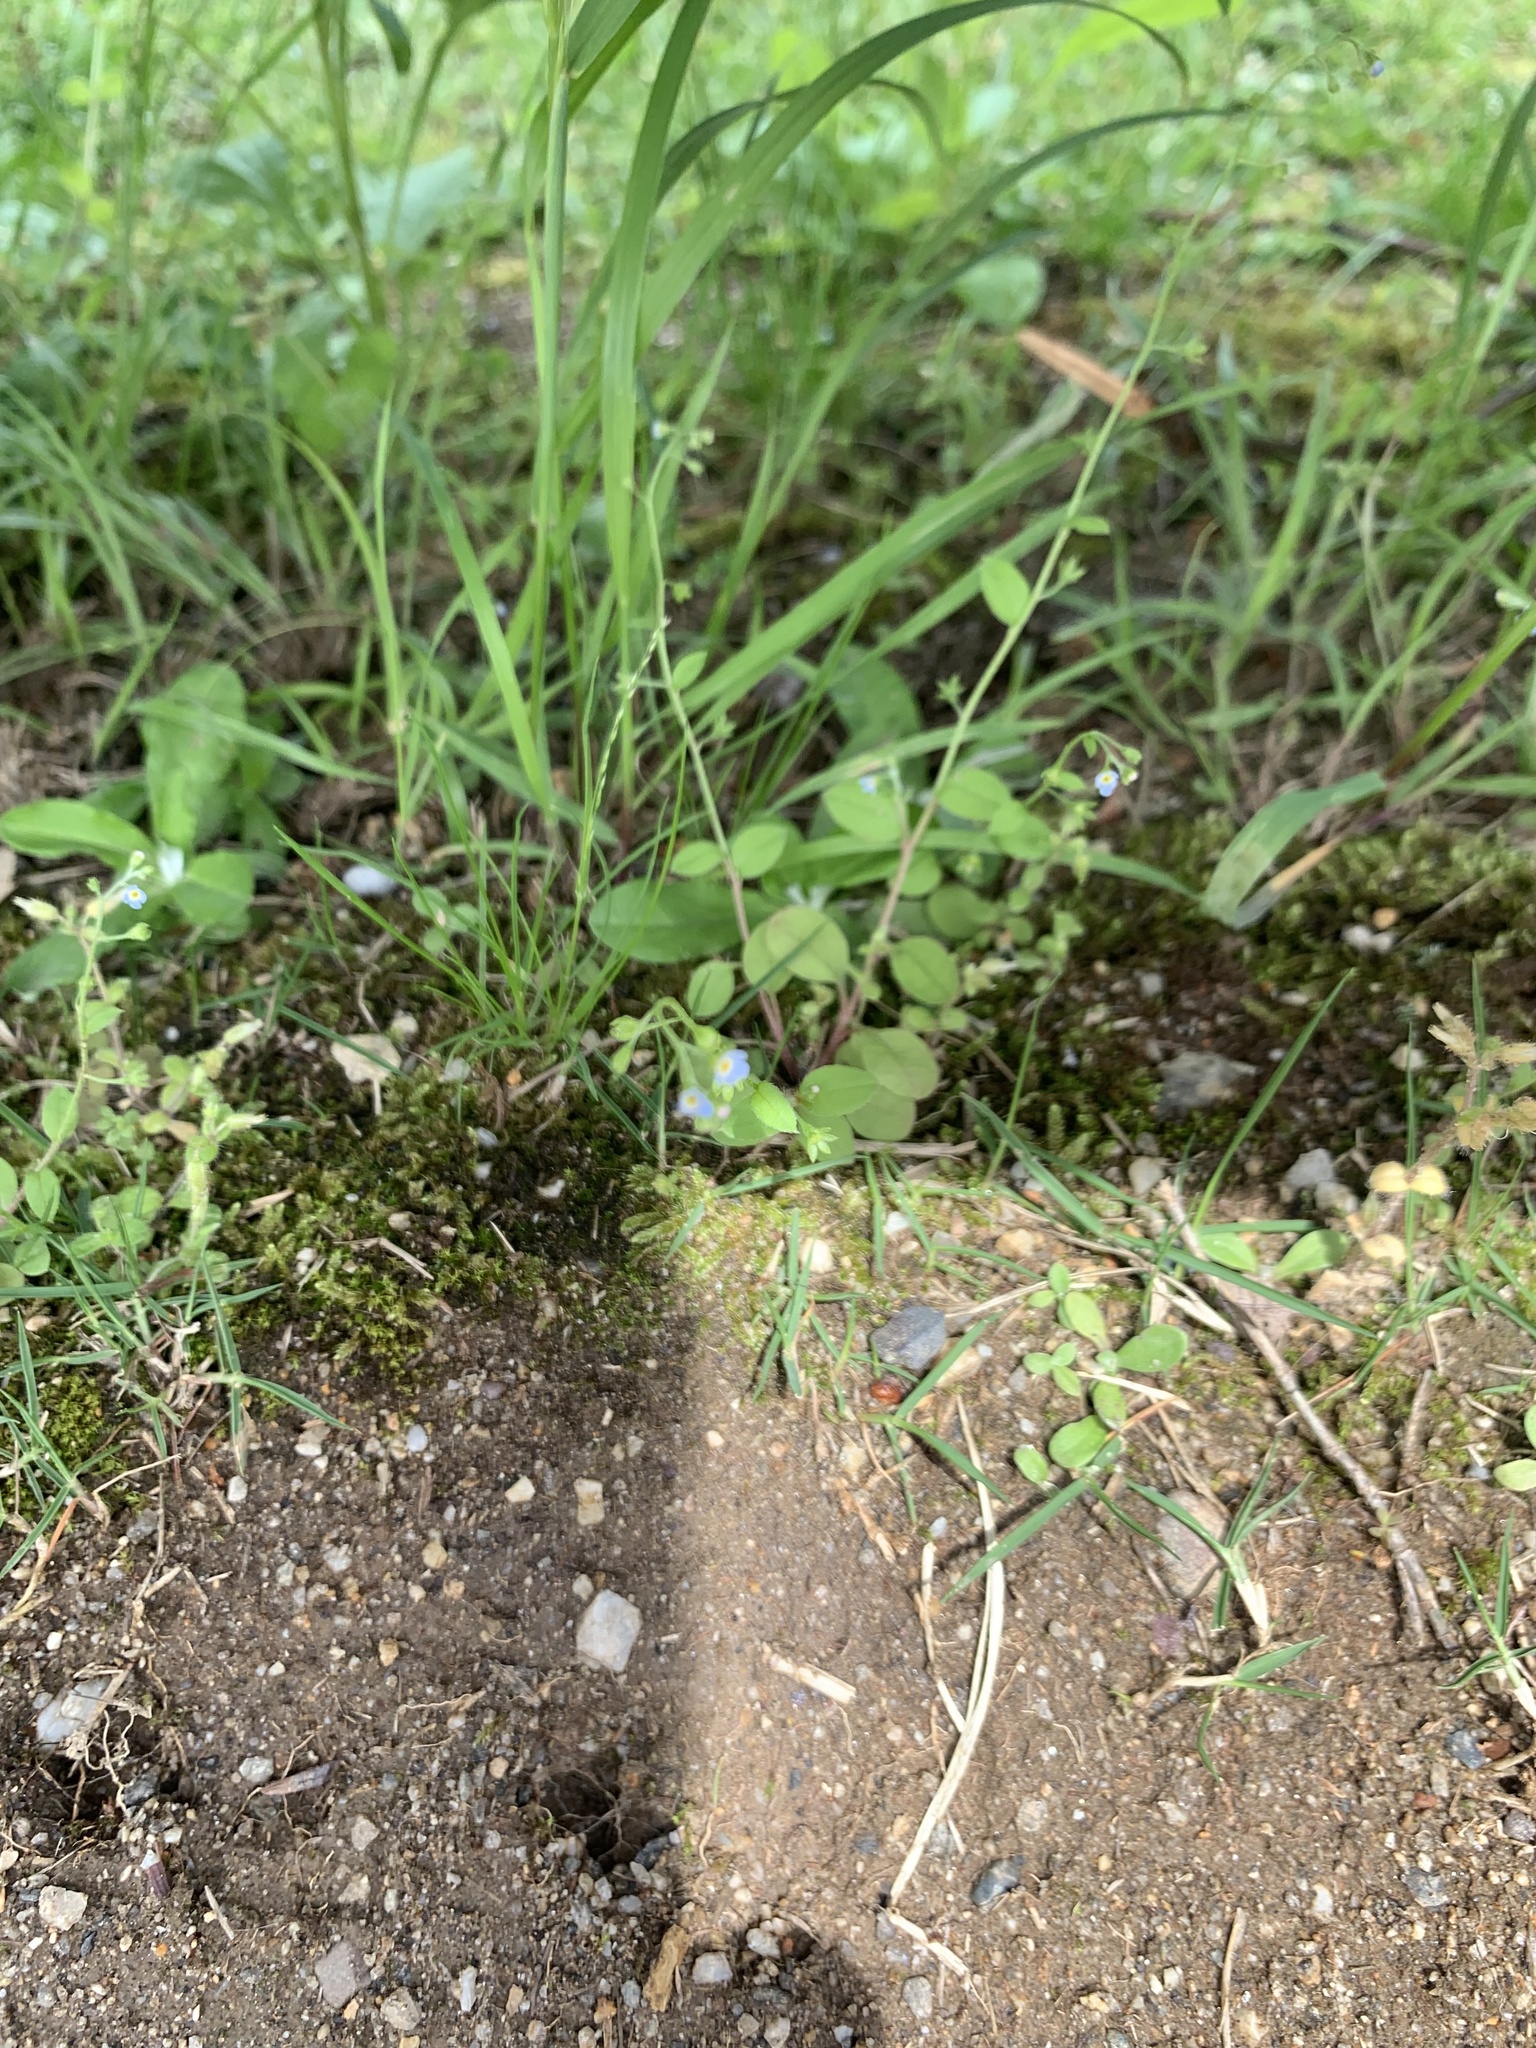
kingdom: Plantae
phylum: Tracheophyta
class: Magnoliopsida
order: Boraginales
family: Boraginaceae
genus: Trigonotis
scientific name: Trigonotis peduncularis
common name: Cucumber herb
